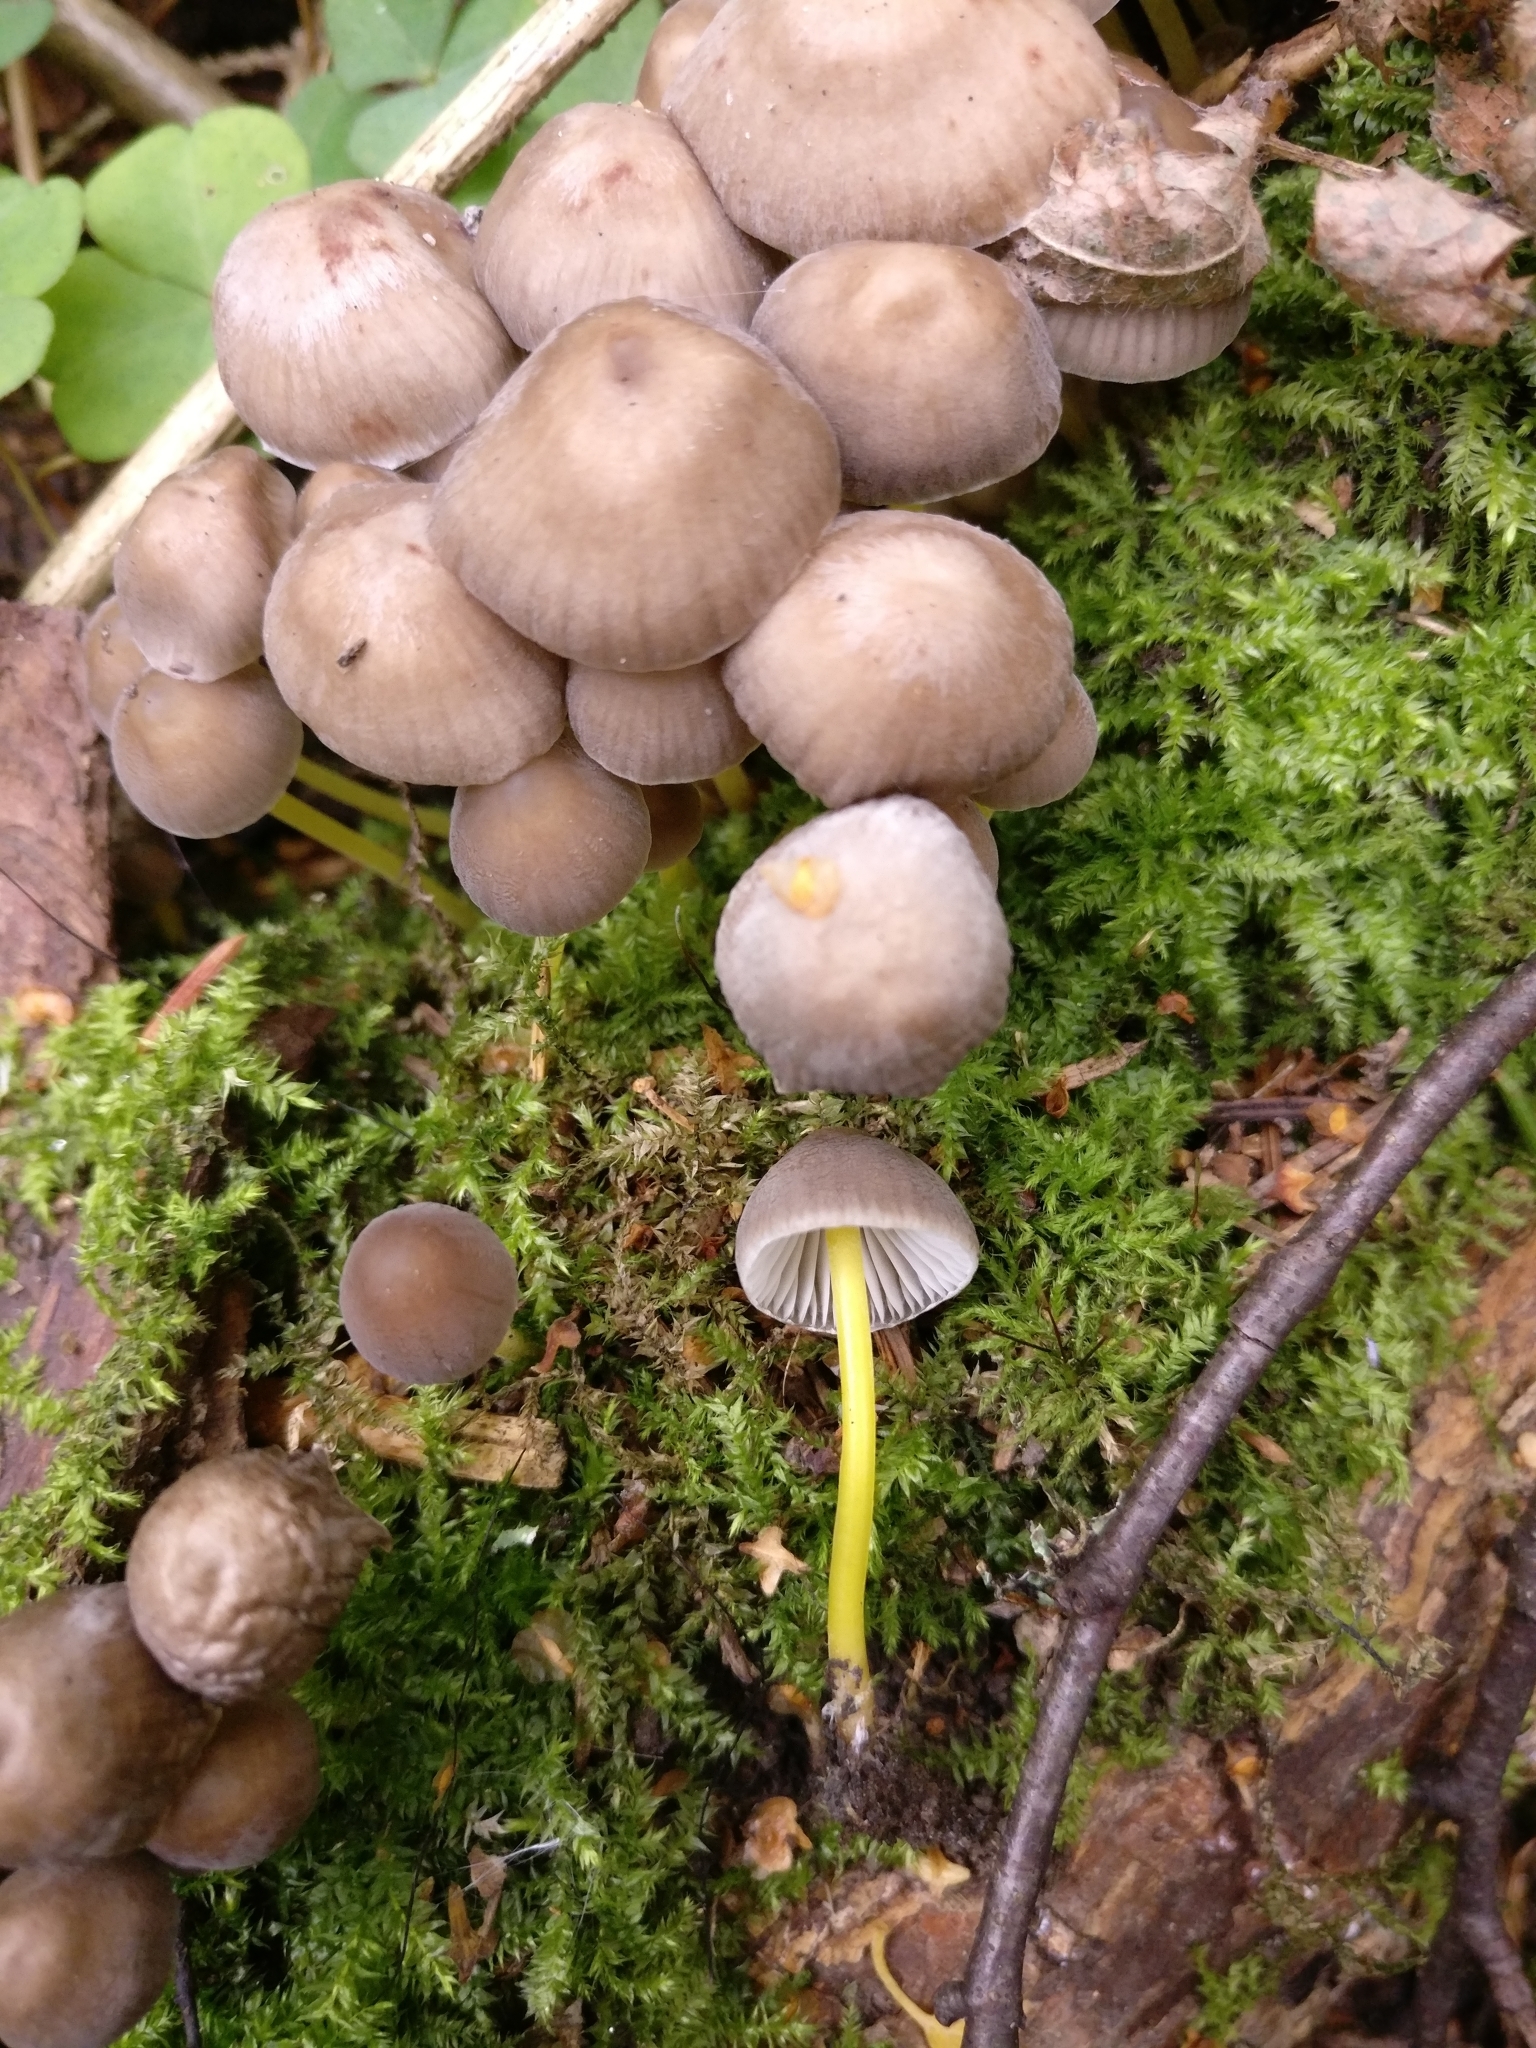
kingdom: Fungi
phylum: Basidiomycota
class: Agaricomycetes
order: Agaricales
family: Mycenaceae
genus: Mycena
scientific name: Mycena epipterygia
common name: Yellowleg bonnet
